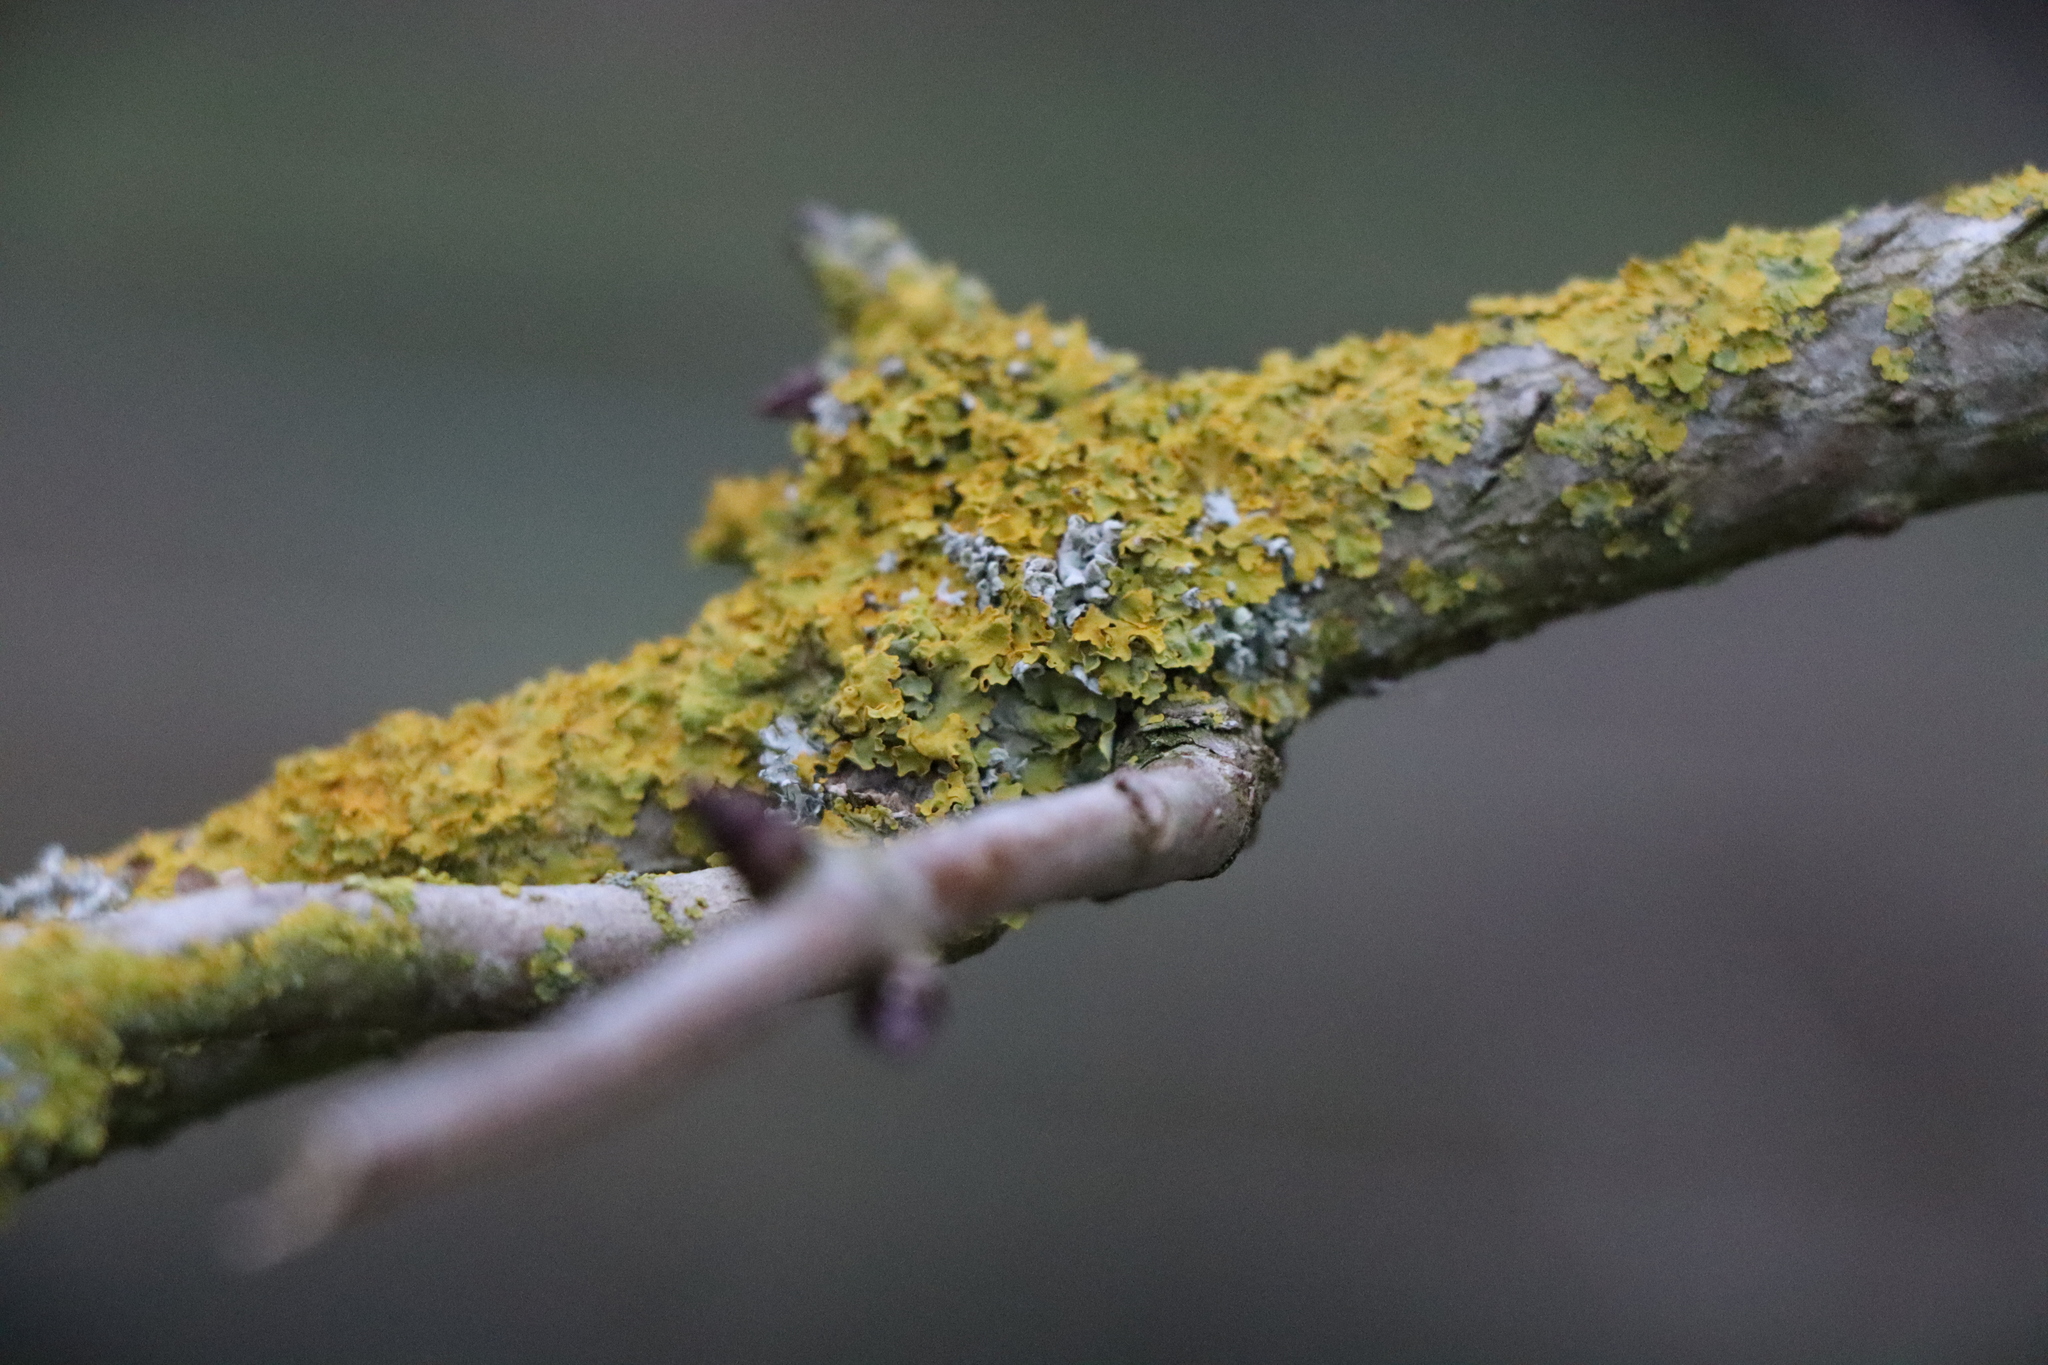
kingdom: Fungi
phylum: Ascomycota
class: Lecanoromycetes
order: Teloschistales
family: Teloschistaceae
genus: Xanthoria
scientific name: Xanthoria parietina
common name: Common orange lichen
